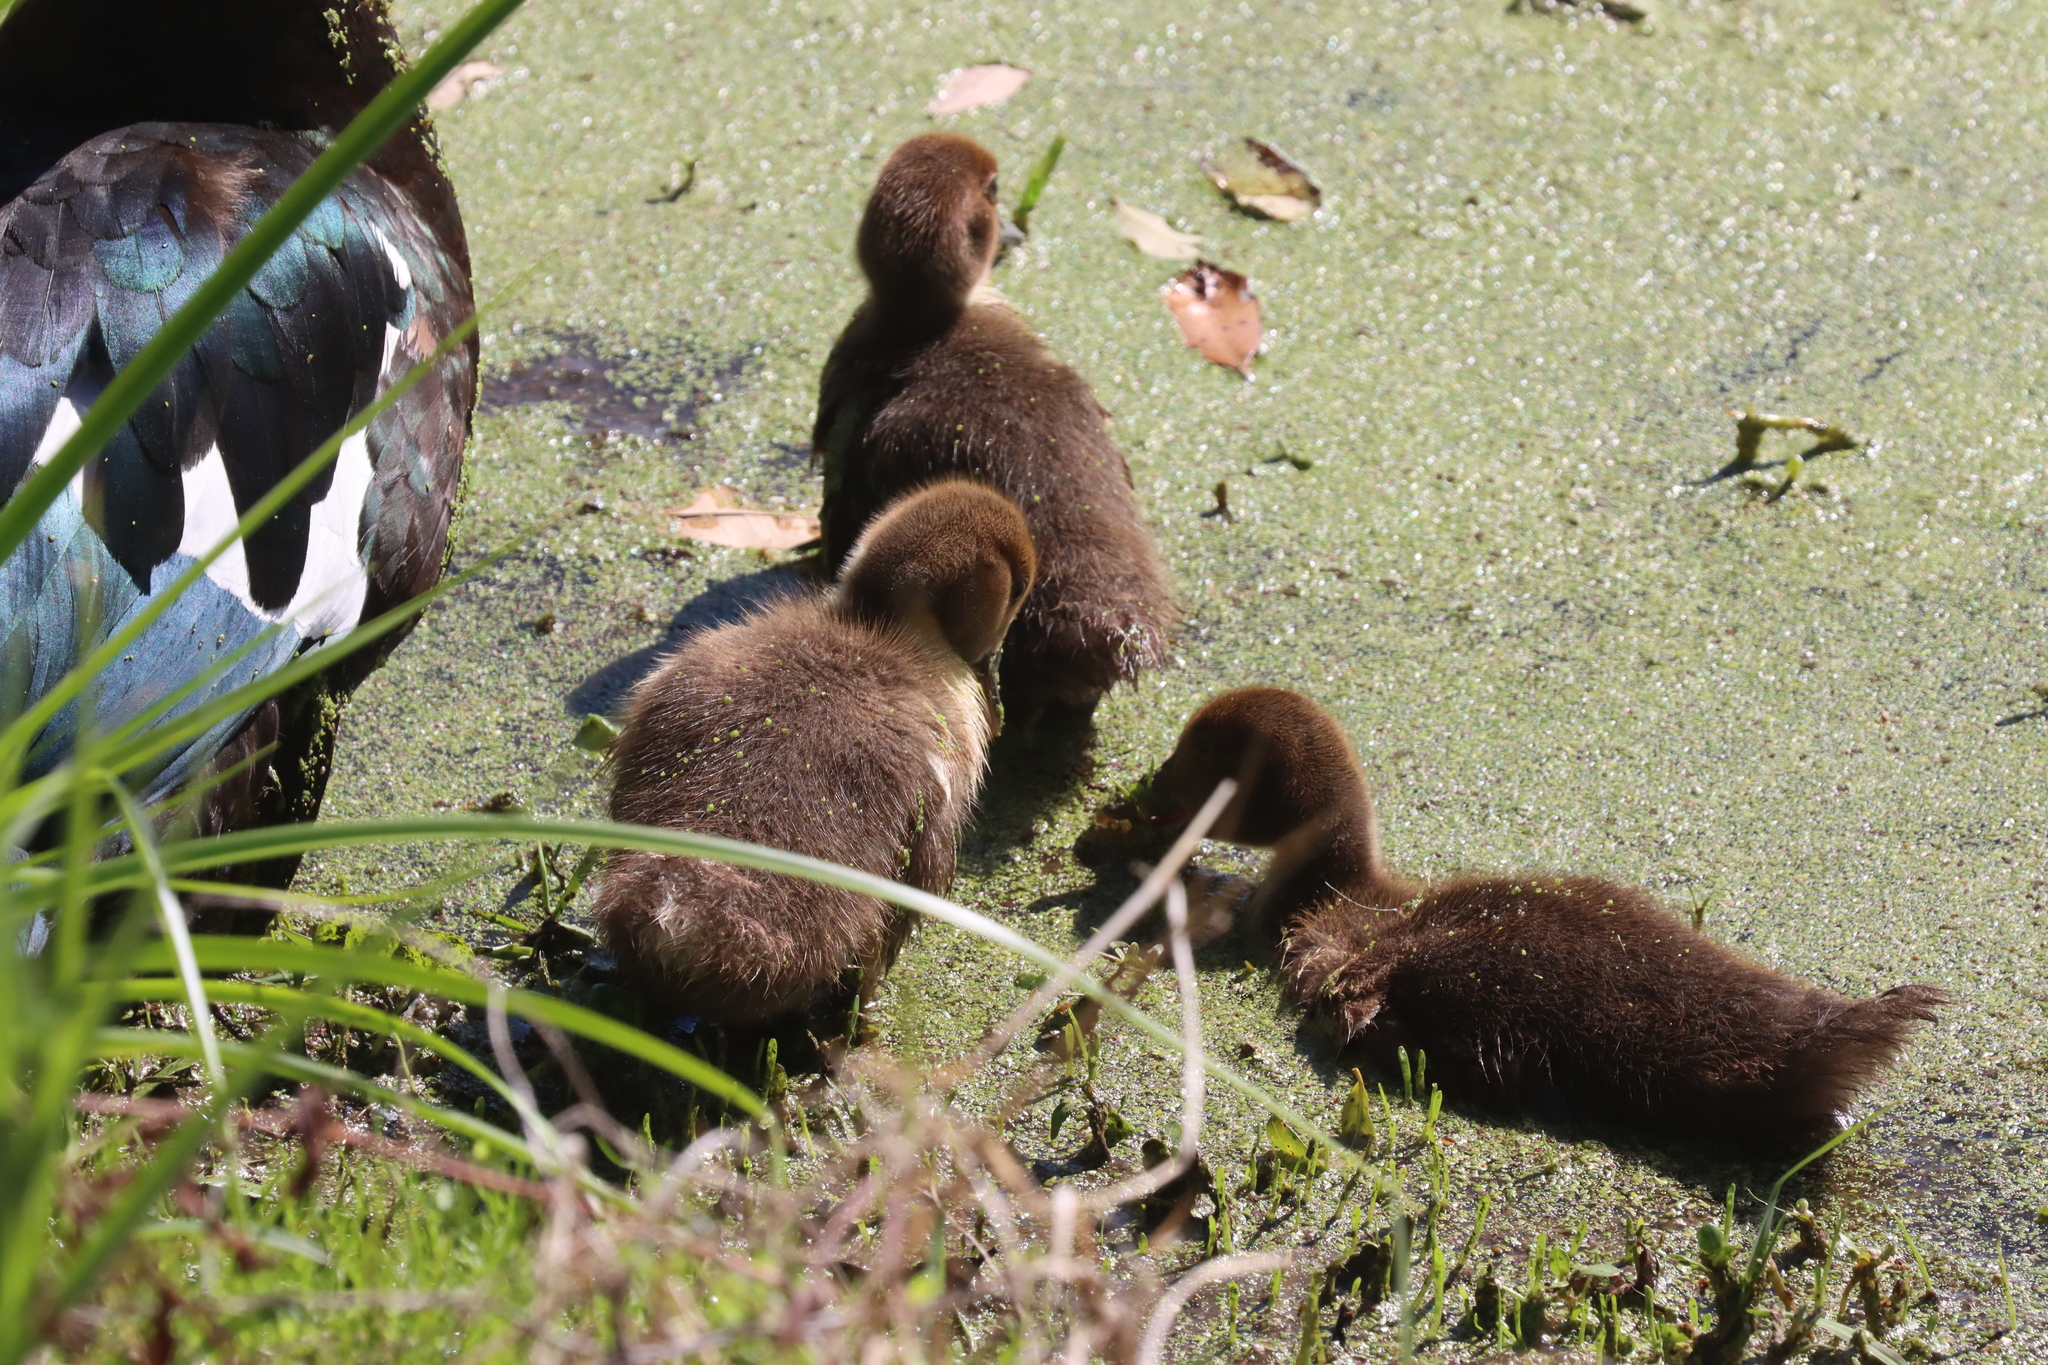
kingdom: Animalia
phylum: Chordata
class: Aves
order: Anseriformes
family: Anatidae
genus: Cairina
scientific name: Cairina moschata
